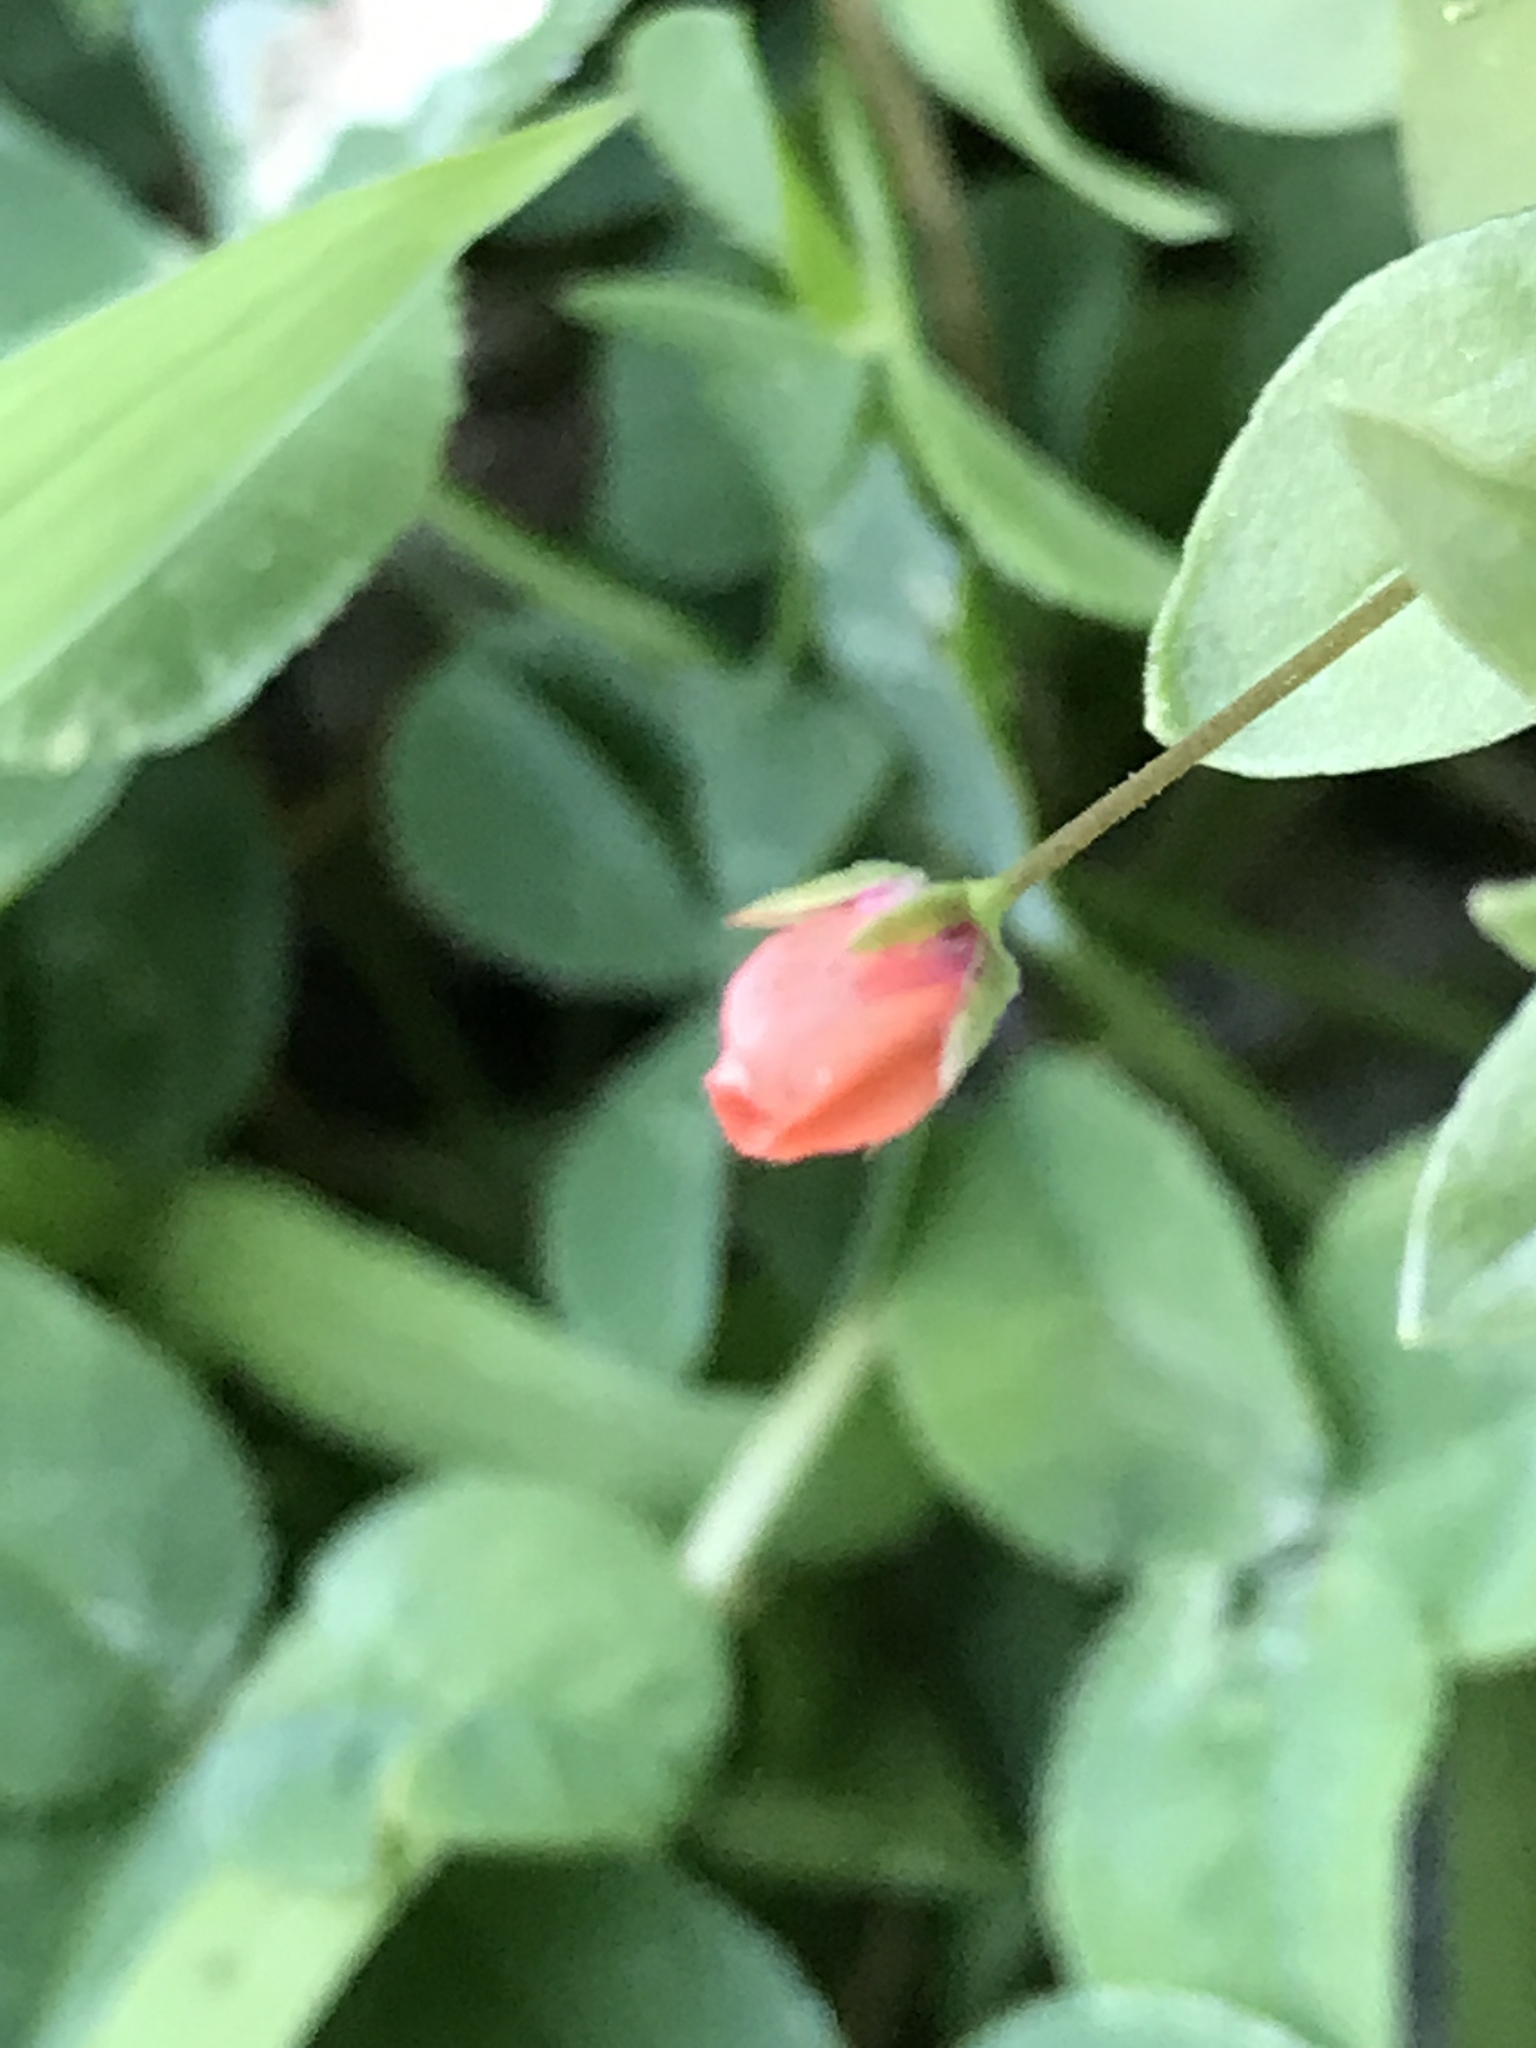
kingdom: Plantae
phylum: Tracheophyta
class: Magnoliopsida
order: Ericales
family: Primulaceae
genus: Lysimachia
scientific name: Lysimachia arvensis
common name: Scarlet pimpernel
